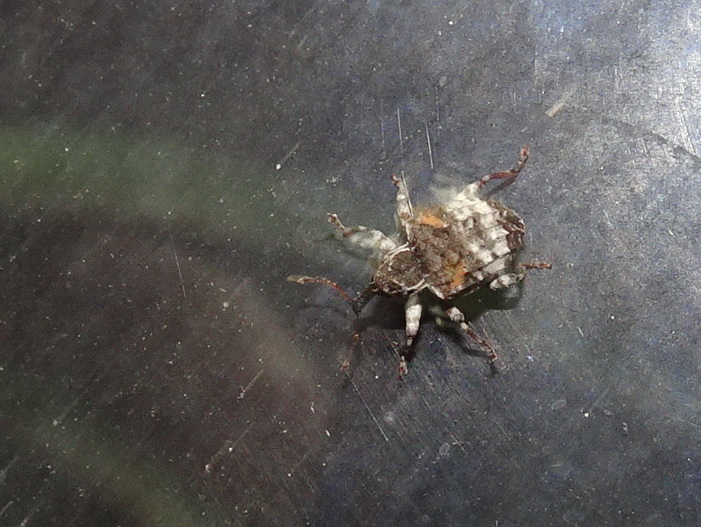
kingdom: Animalia
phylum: Arthropoda
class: Insecta
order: Coleoptera
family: Curculionidae
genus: Conotrachelus
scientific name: Conotrachelus anaglypticus
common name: Cambium curculio
